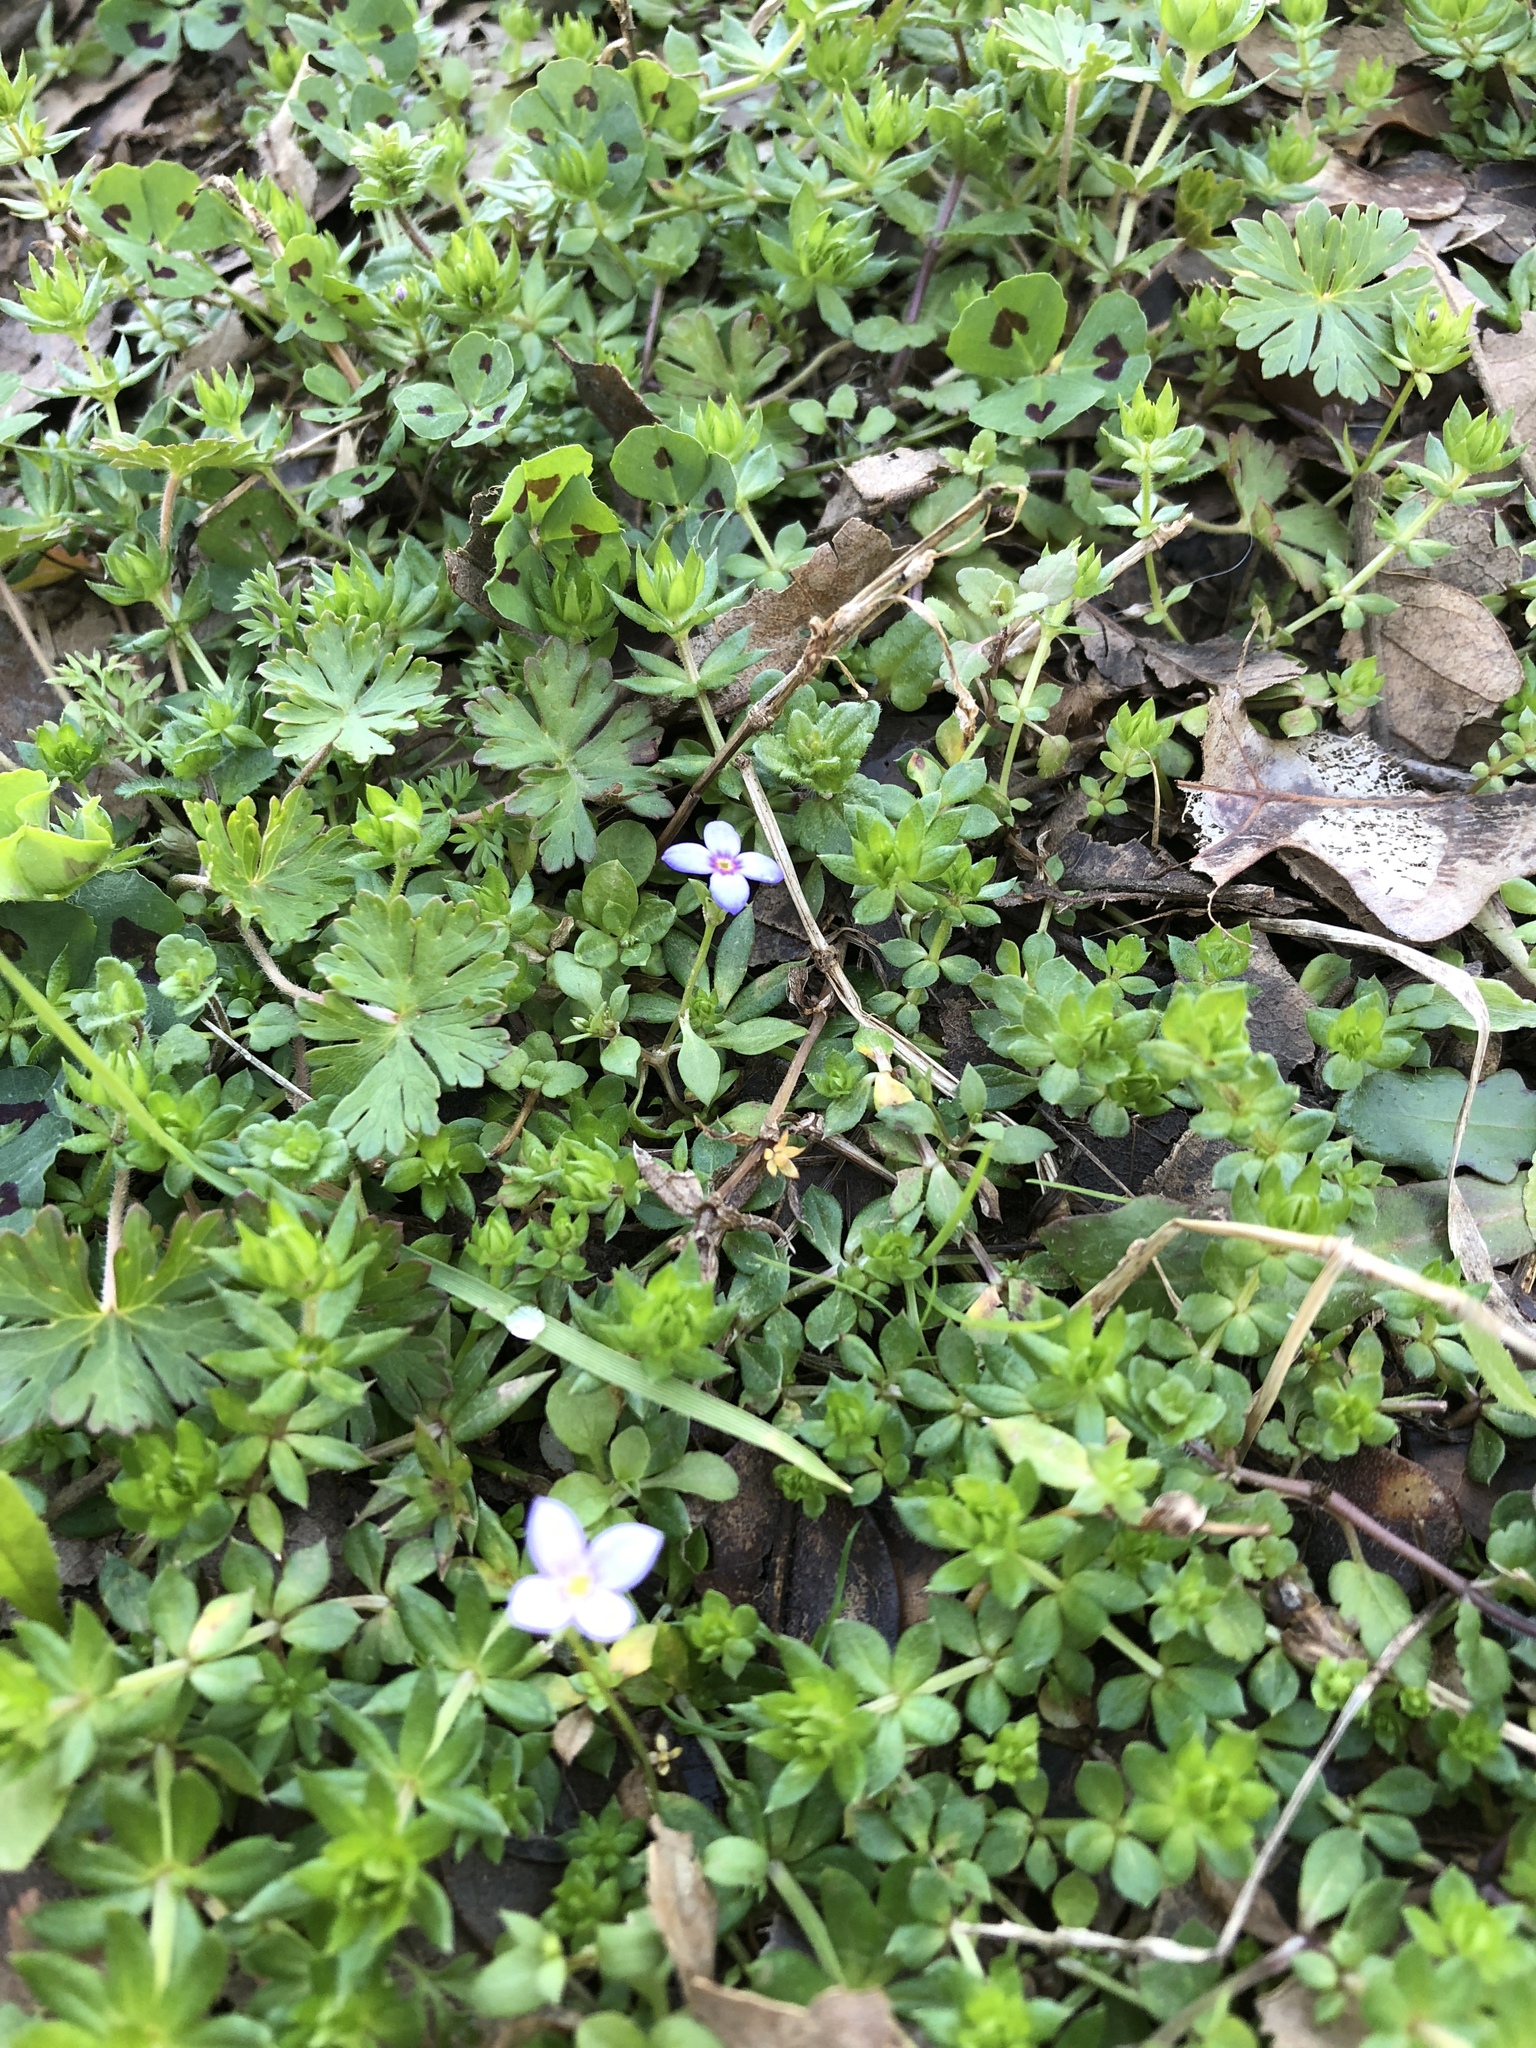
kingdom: Plantae
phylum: Tracheophyta
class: Magnoliopsida
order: Gentianales
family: Rubiaceae
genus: Houstonia
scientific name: Houstonia pusilla
